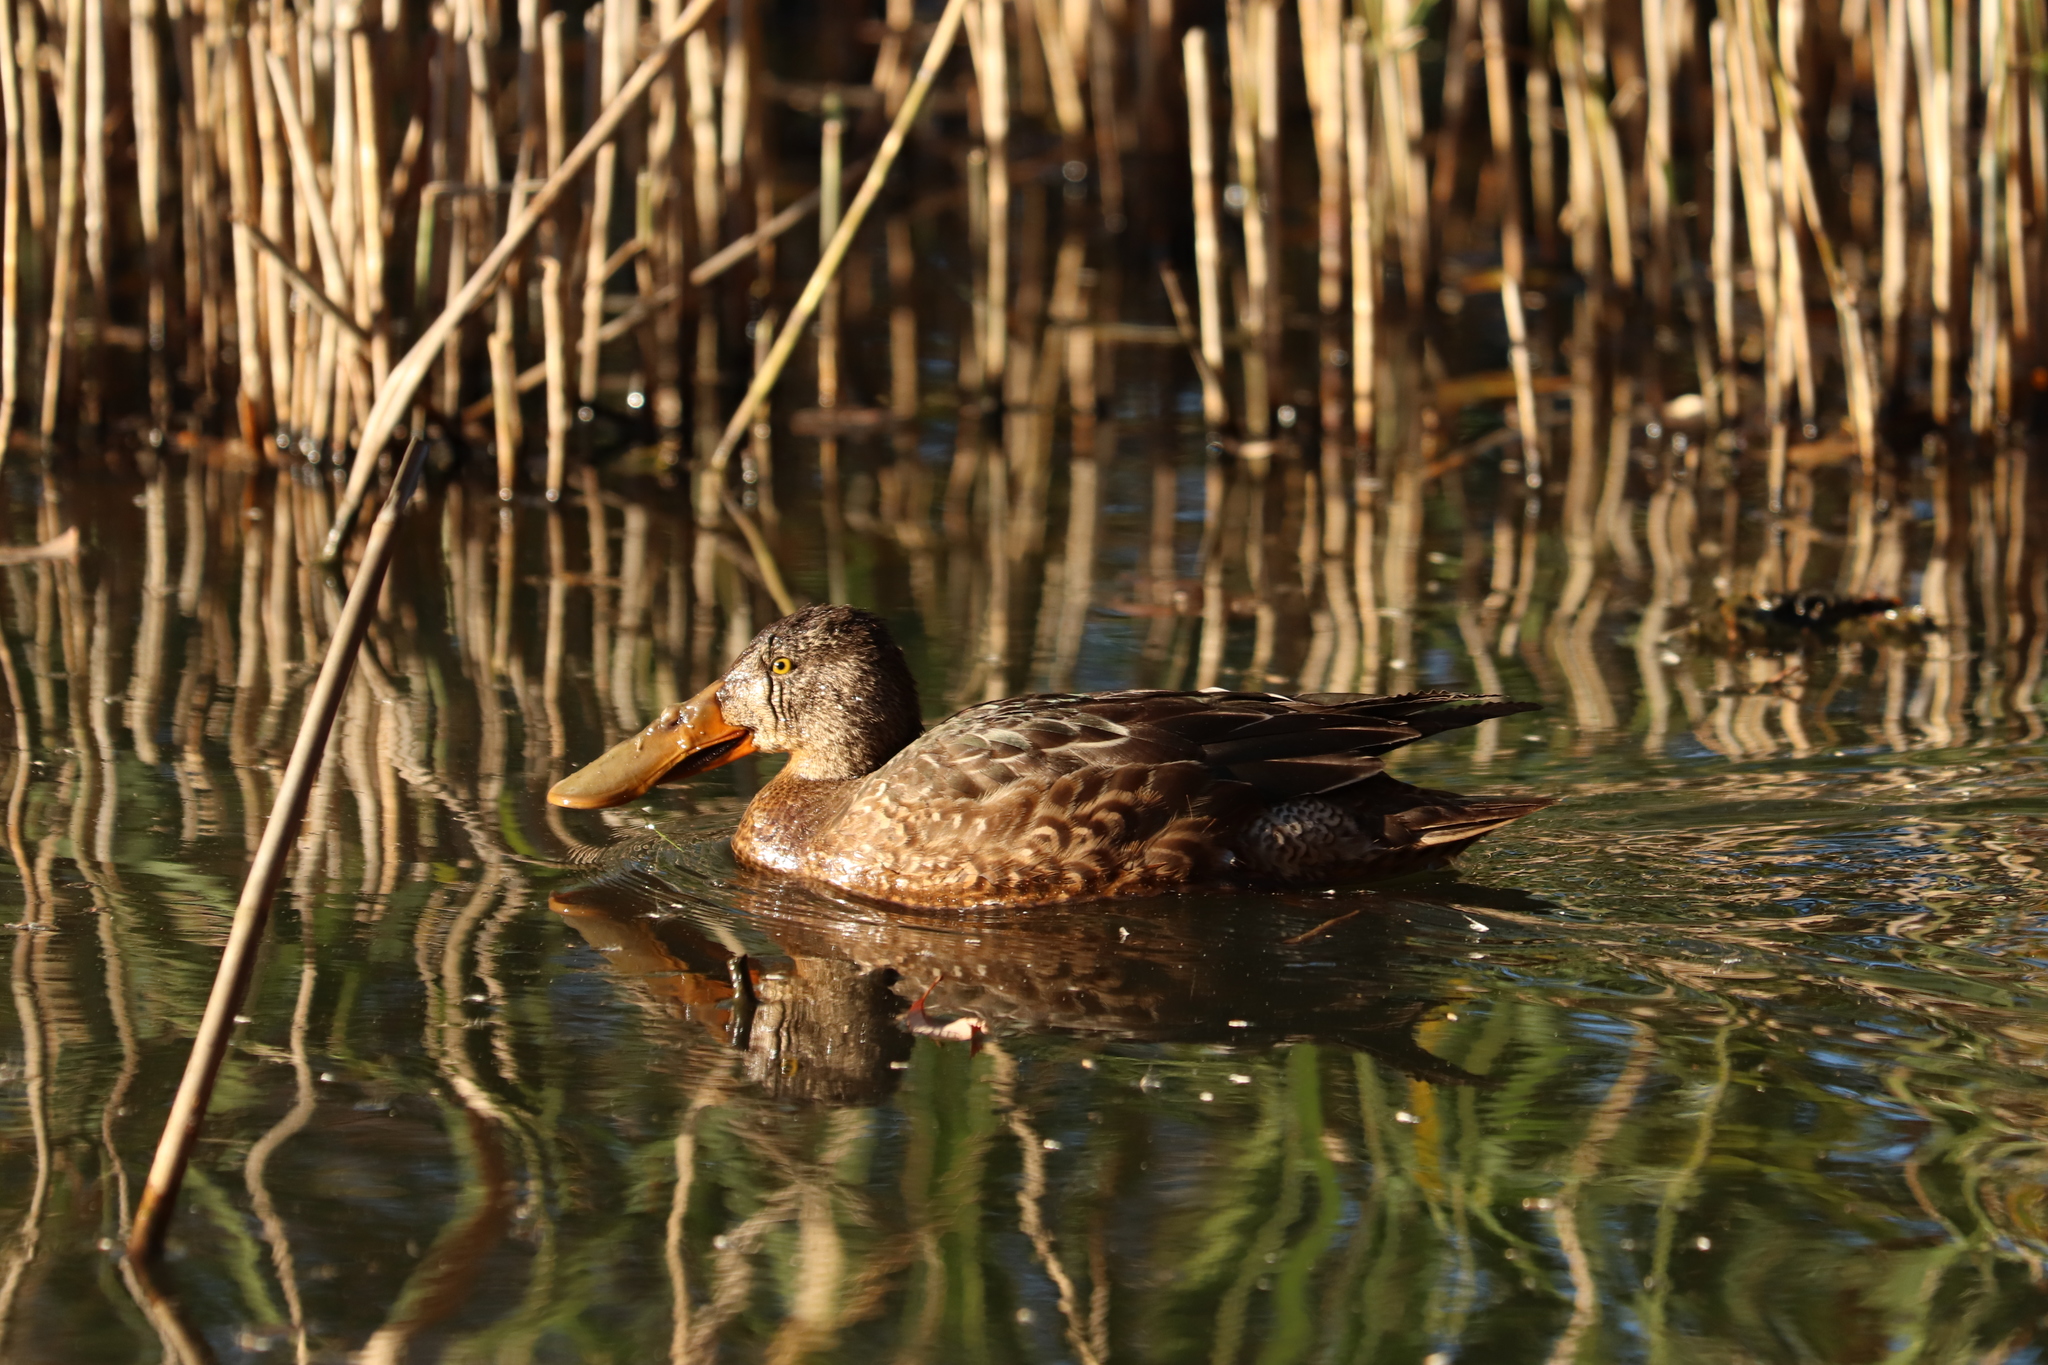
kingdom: Animalia
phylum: Chordata
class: Aves
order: Anseriformes
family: Anatidae
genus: Spatula
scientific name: Spatula clypeata
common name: Northern shoveler
